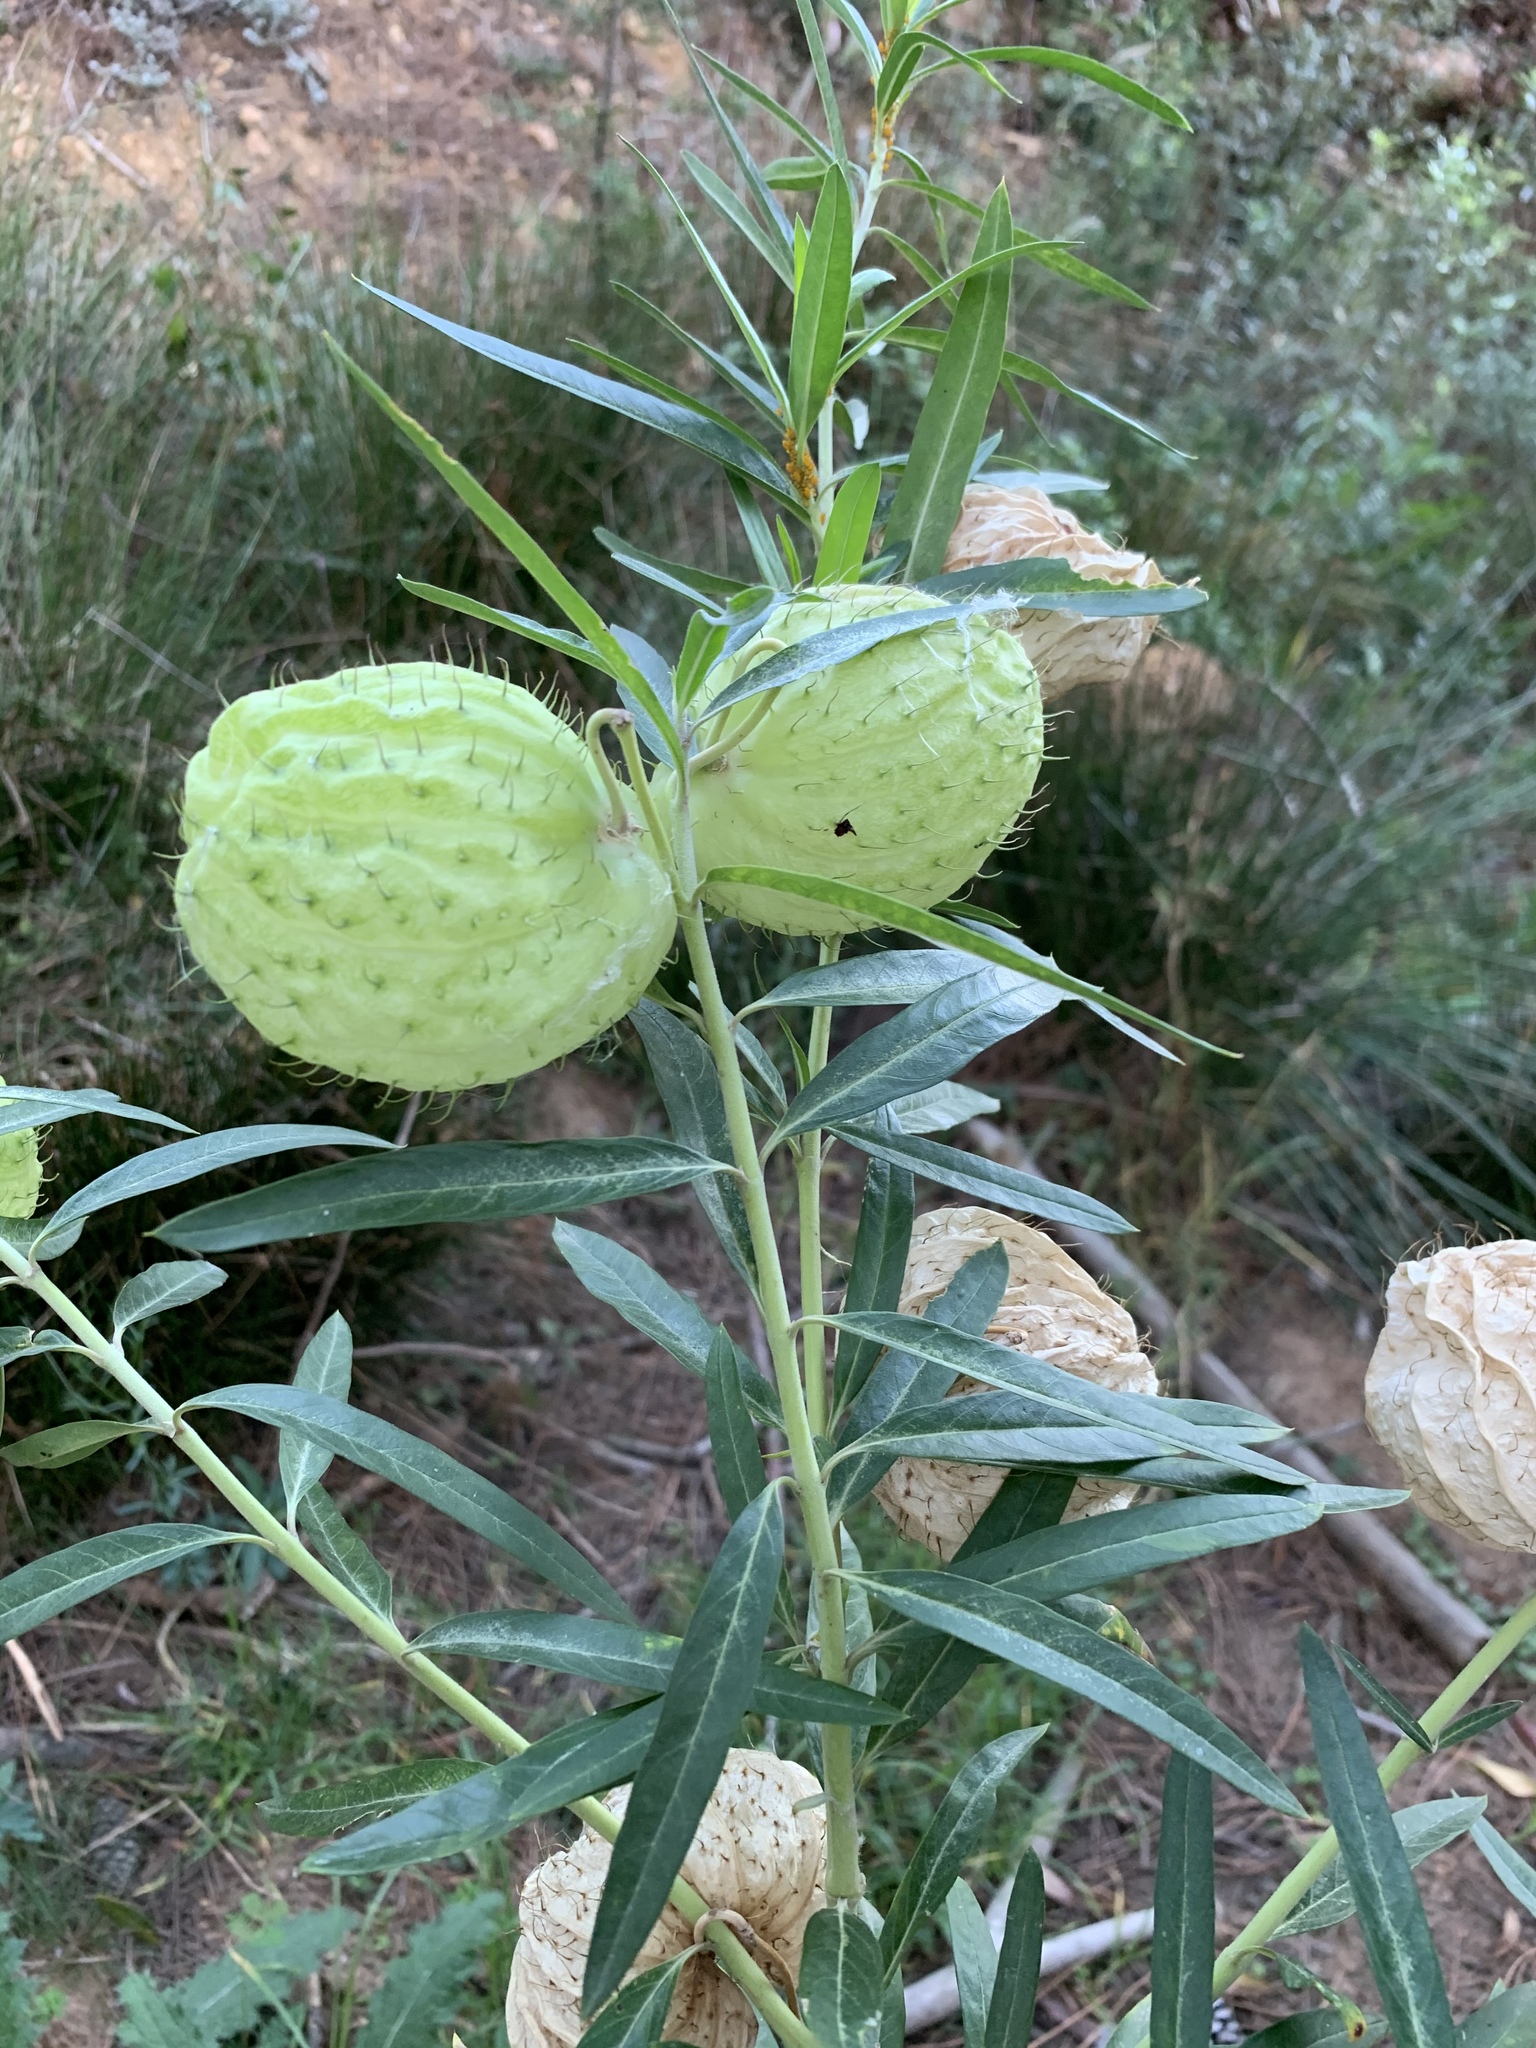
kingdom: Plantae
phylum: Tracheophyta
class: Magnoliopsida
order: Gentianales
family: Apocynaceae
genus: Gomphocarpus
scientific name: Gomphocarpus physocarpus
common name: Balloon cotton bush
